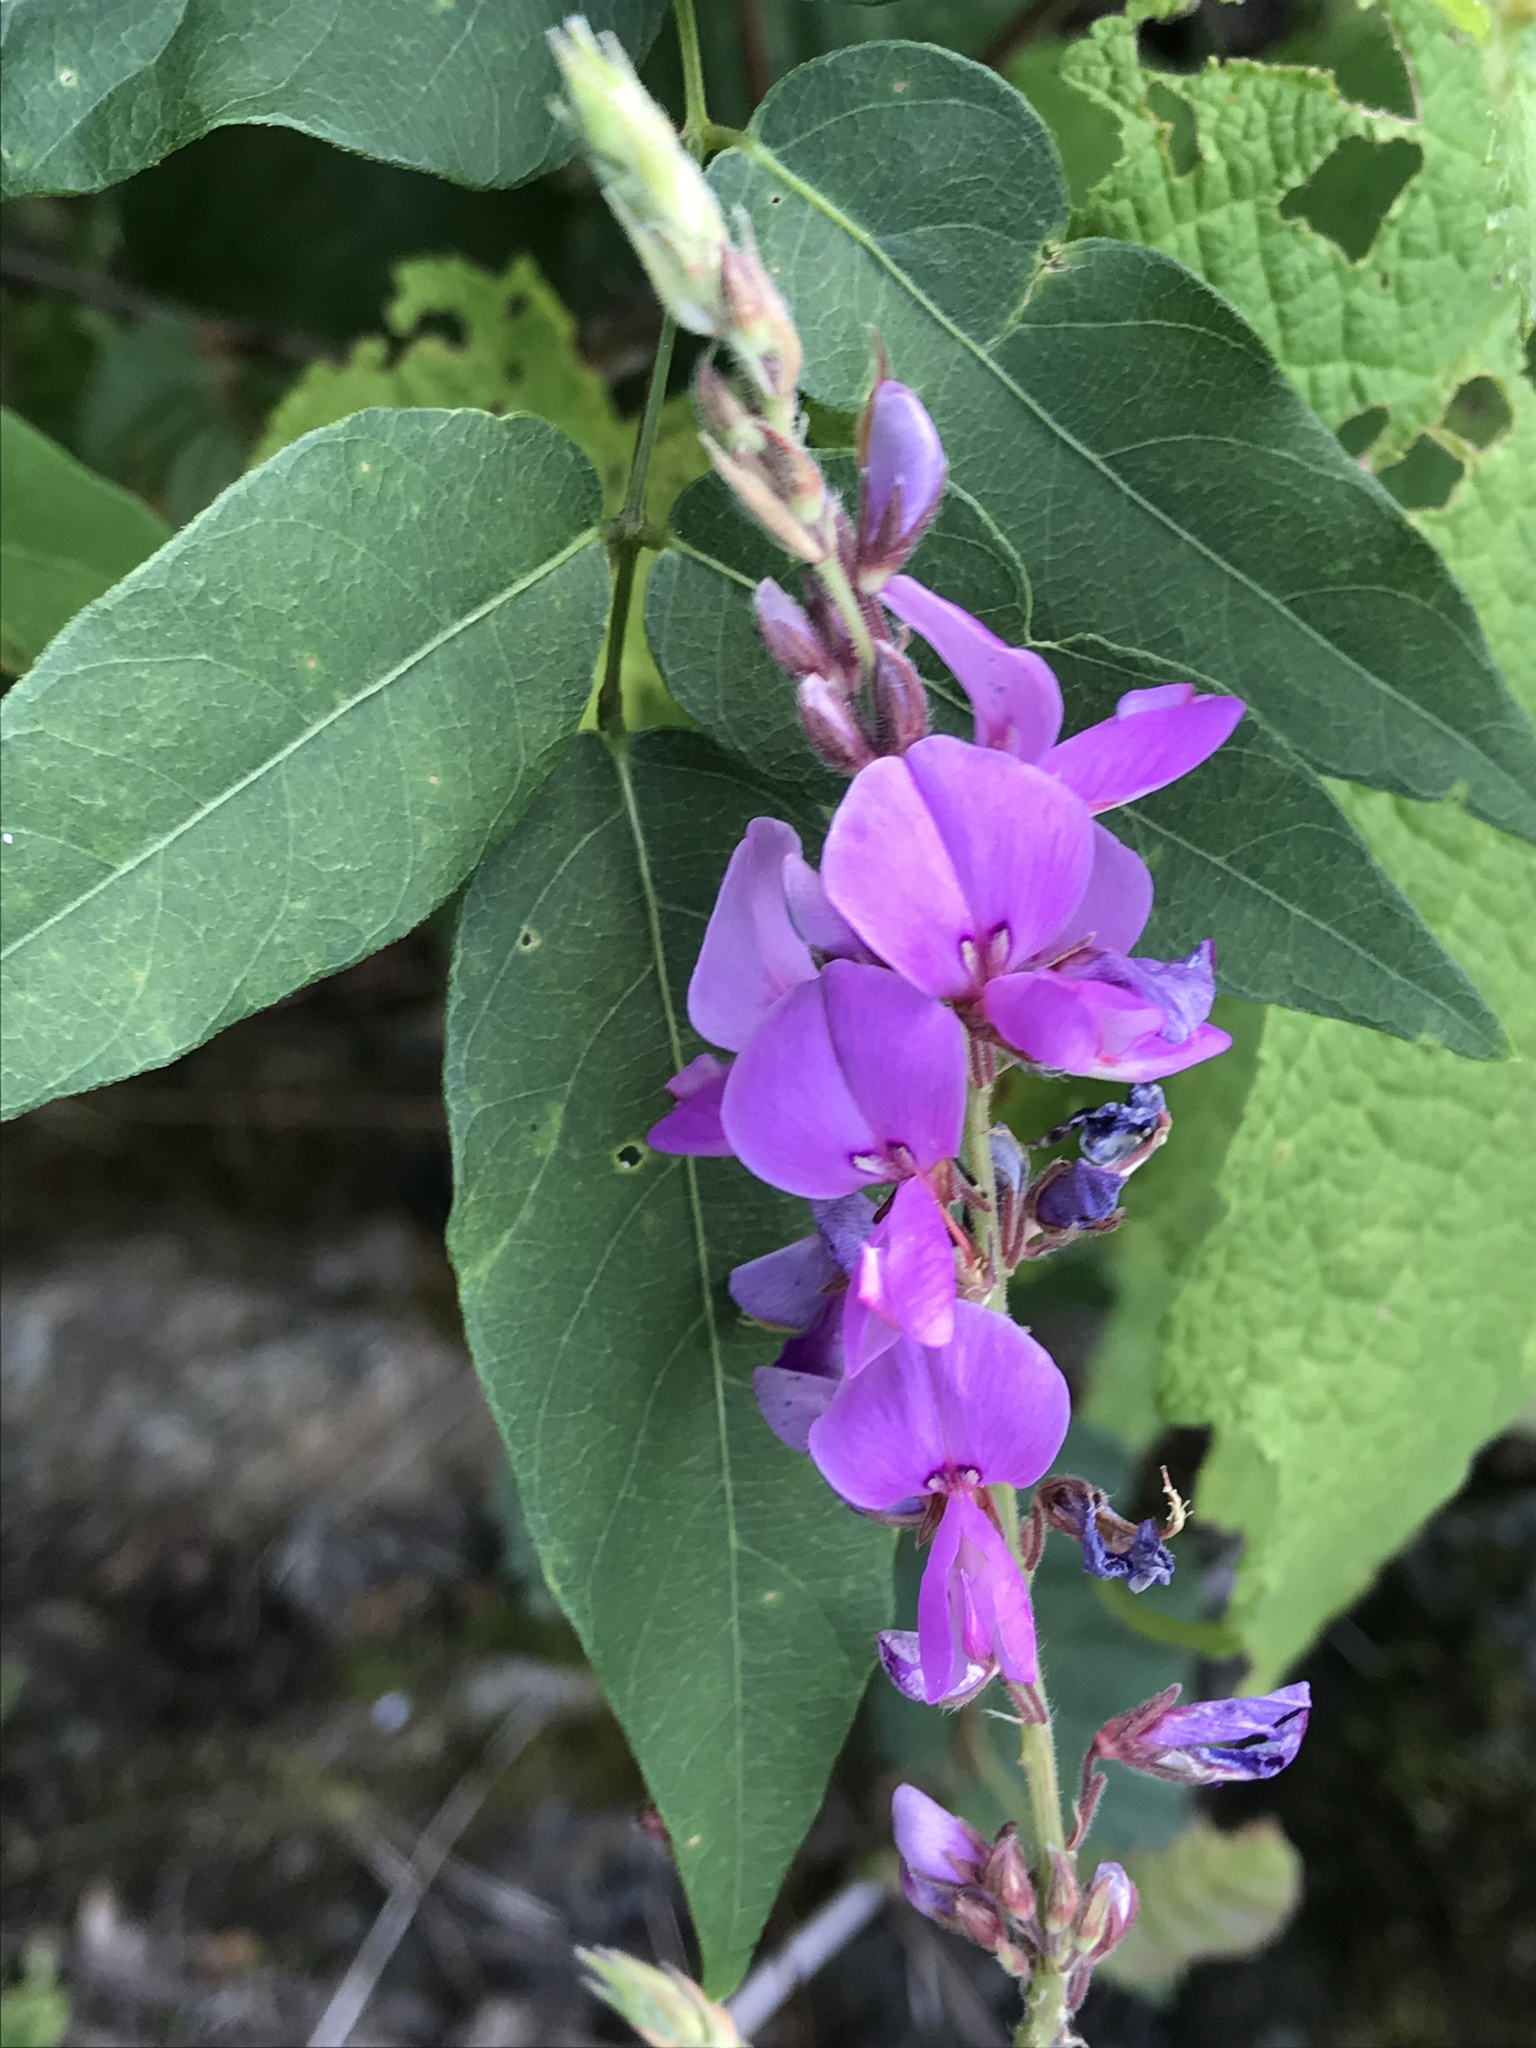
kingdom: Plantae
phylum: Tracheophyta
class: Magnoliopsida
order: Fabales
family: Fabaceae
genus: Desmodium
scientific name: Desmodium canadense
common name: Canada tick-trefoil
